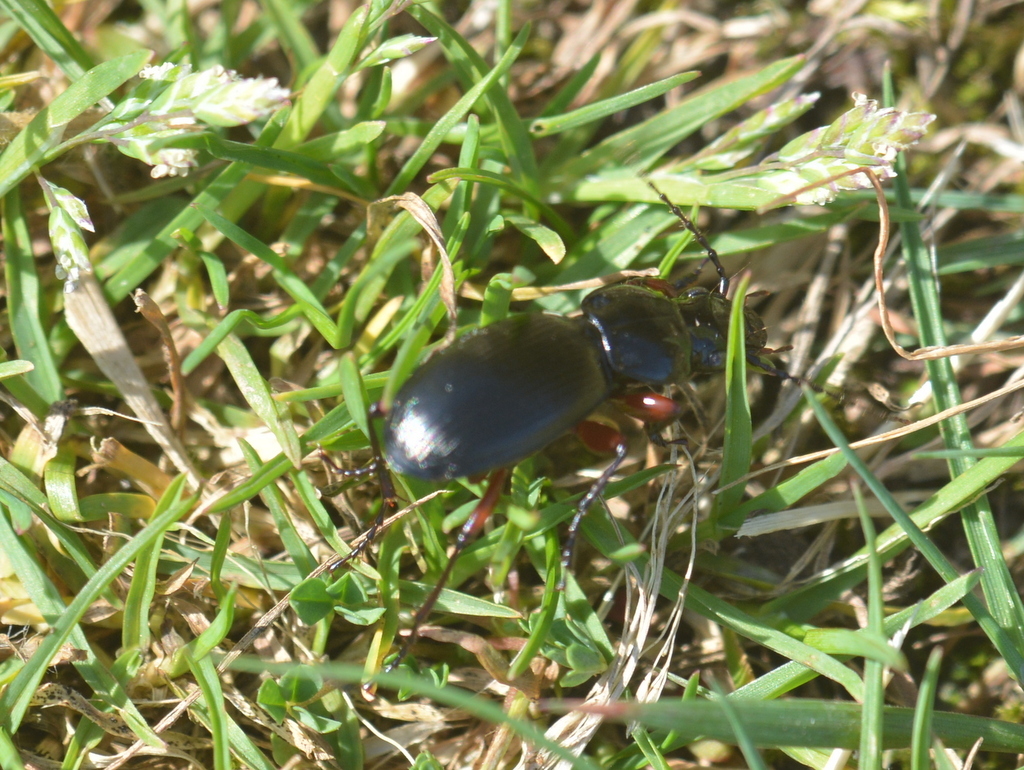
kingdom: Animalia
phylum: Arthropoda
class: Insecta
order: Coleoptera
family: Carabidae
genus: Pterostichus
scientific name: Pterostichus madidus
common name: Black clock
